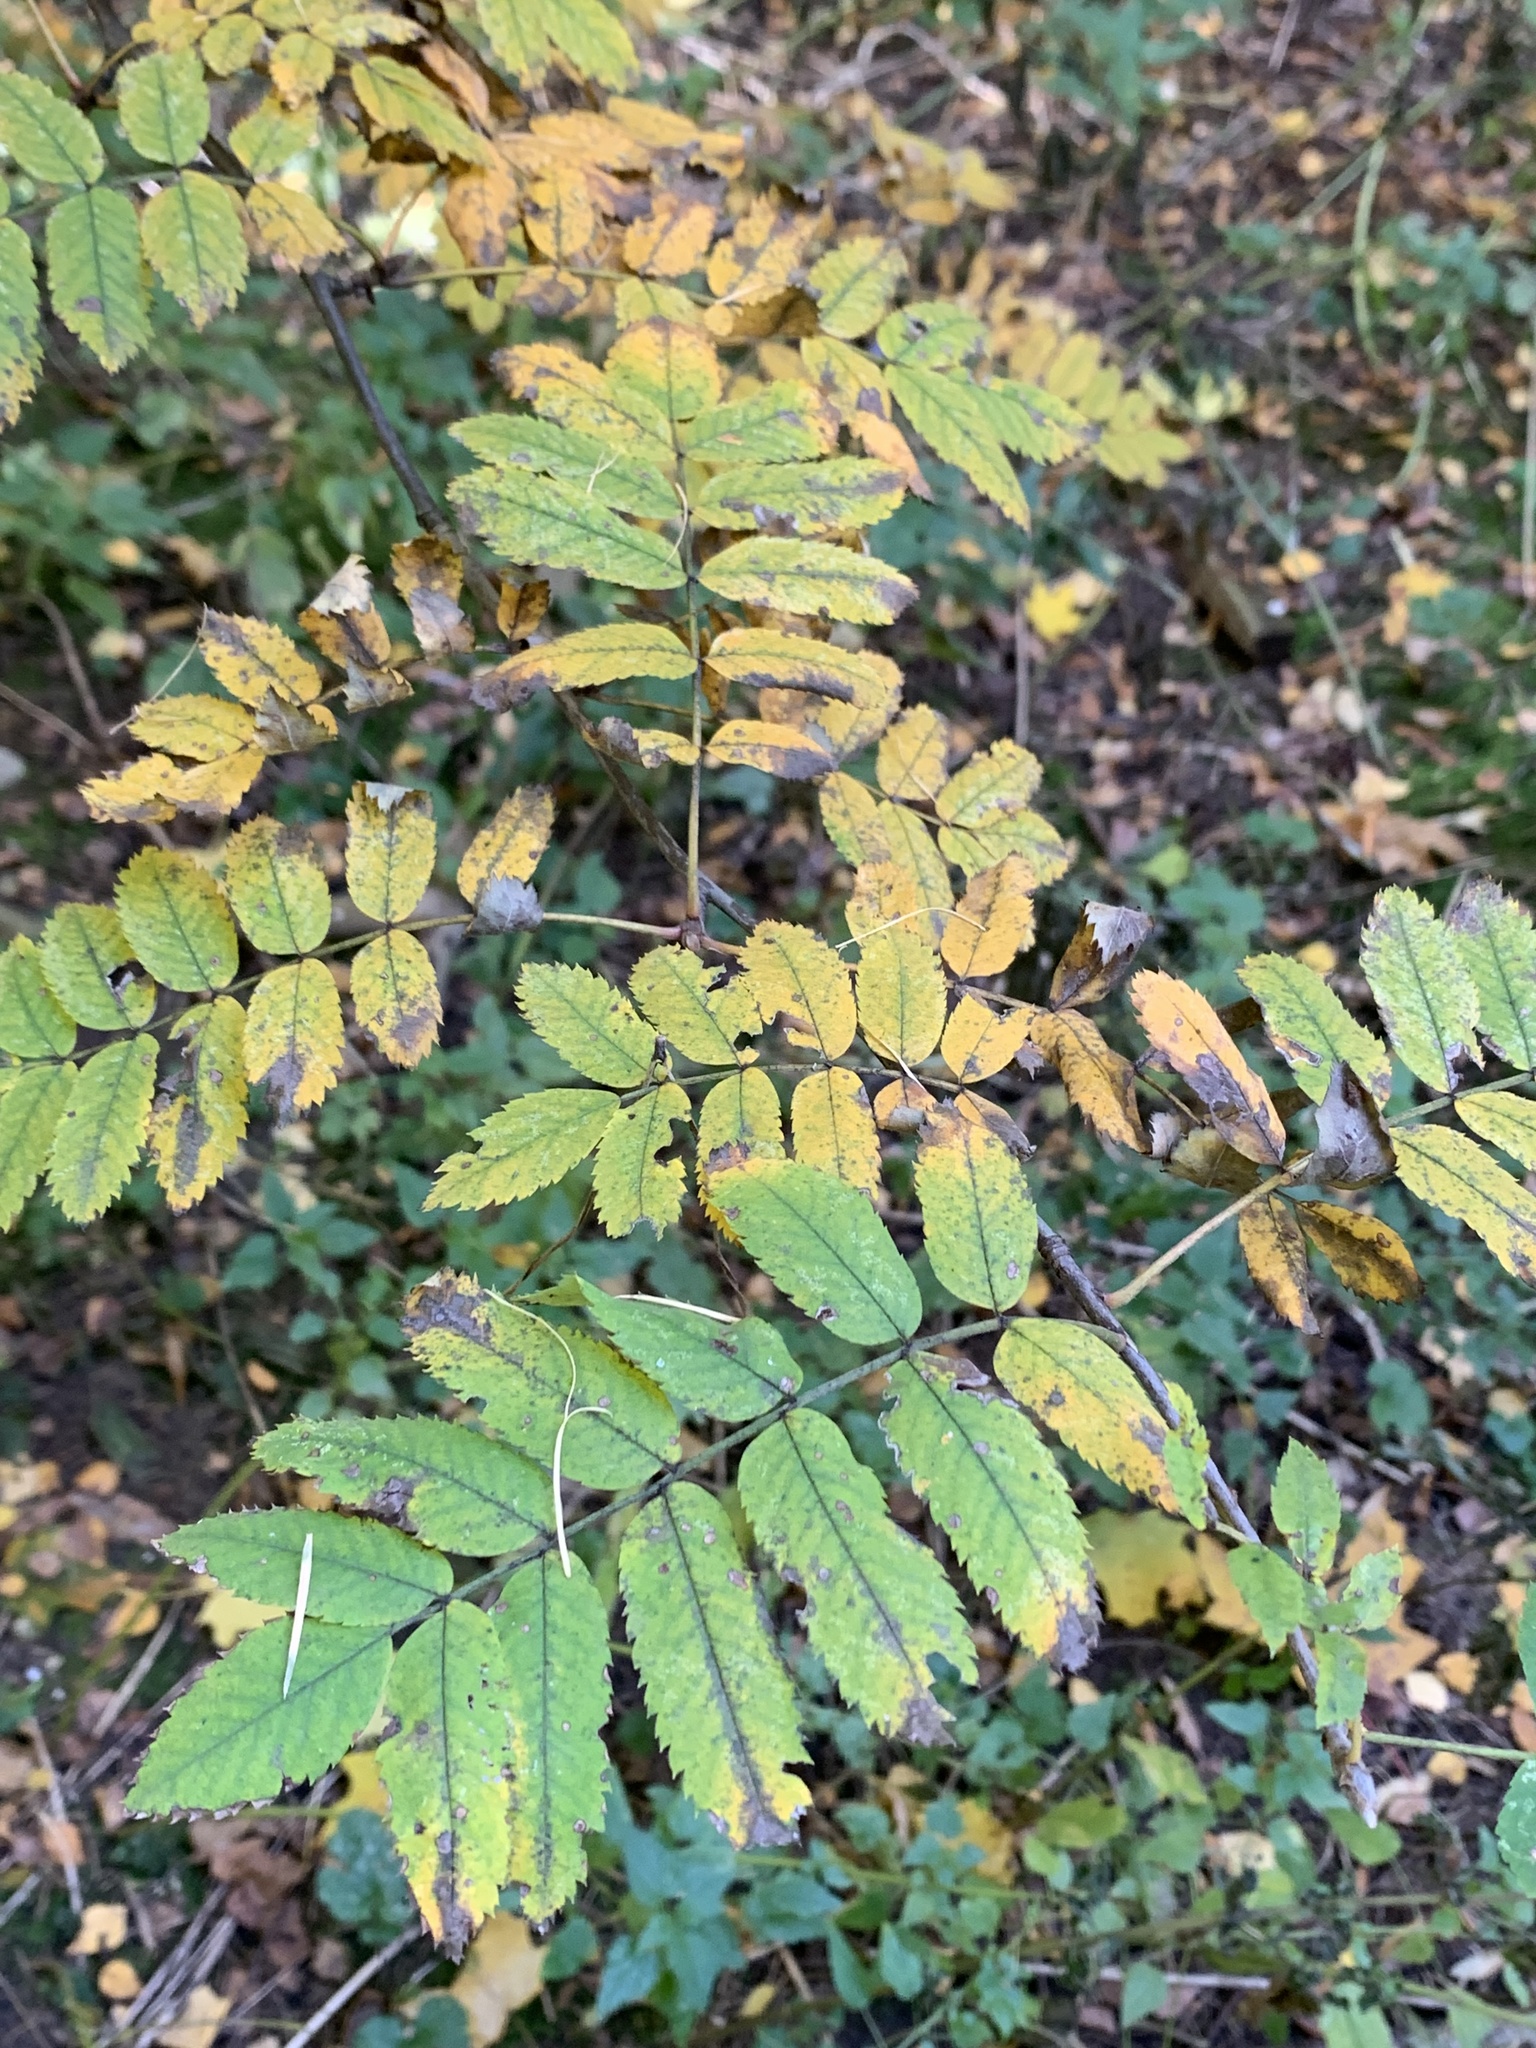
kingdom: Plantae
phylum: Tracheophyta
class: Magnoliopsida
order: Rosales
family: Rosaceae
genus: Sorbus
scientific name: Sorbus aucuparia
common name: Rowan
